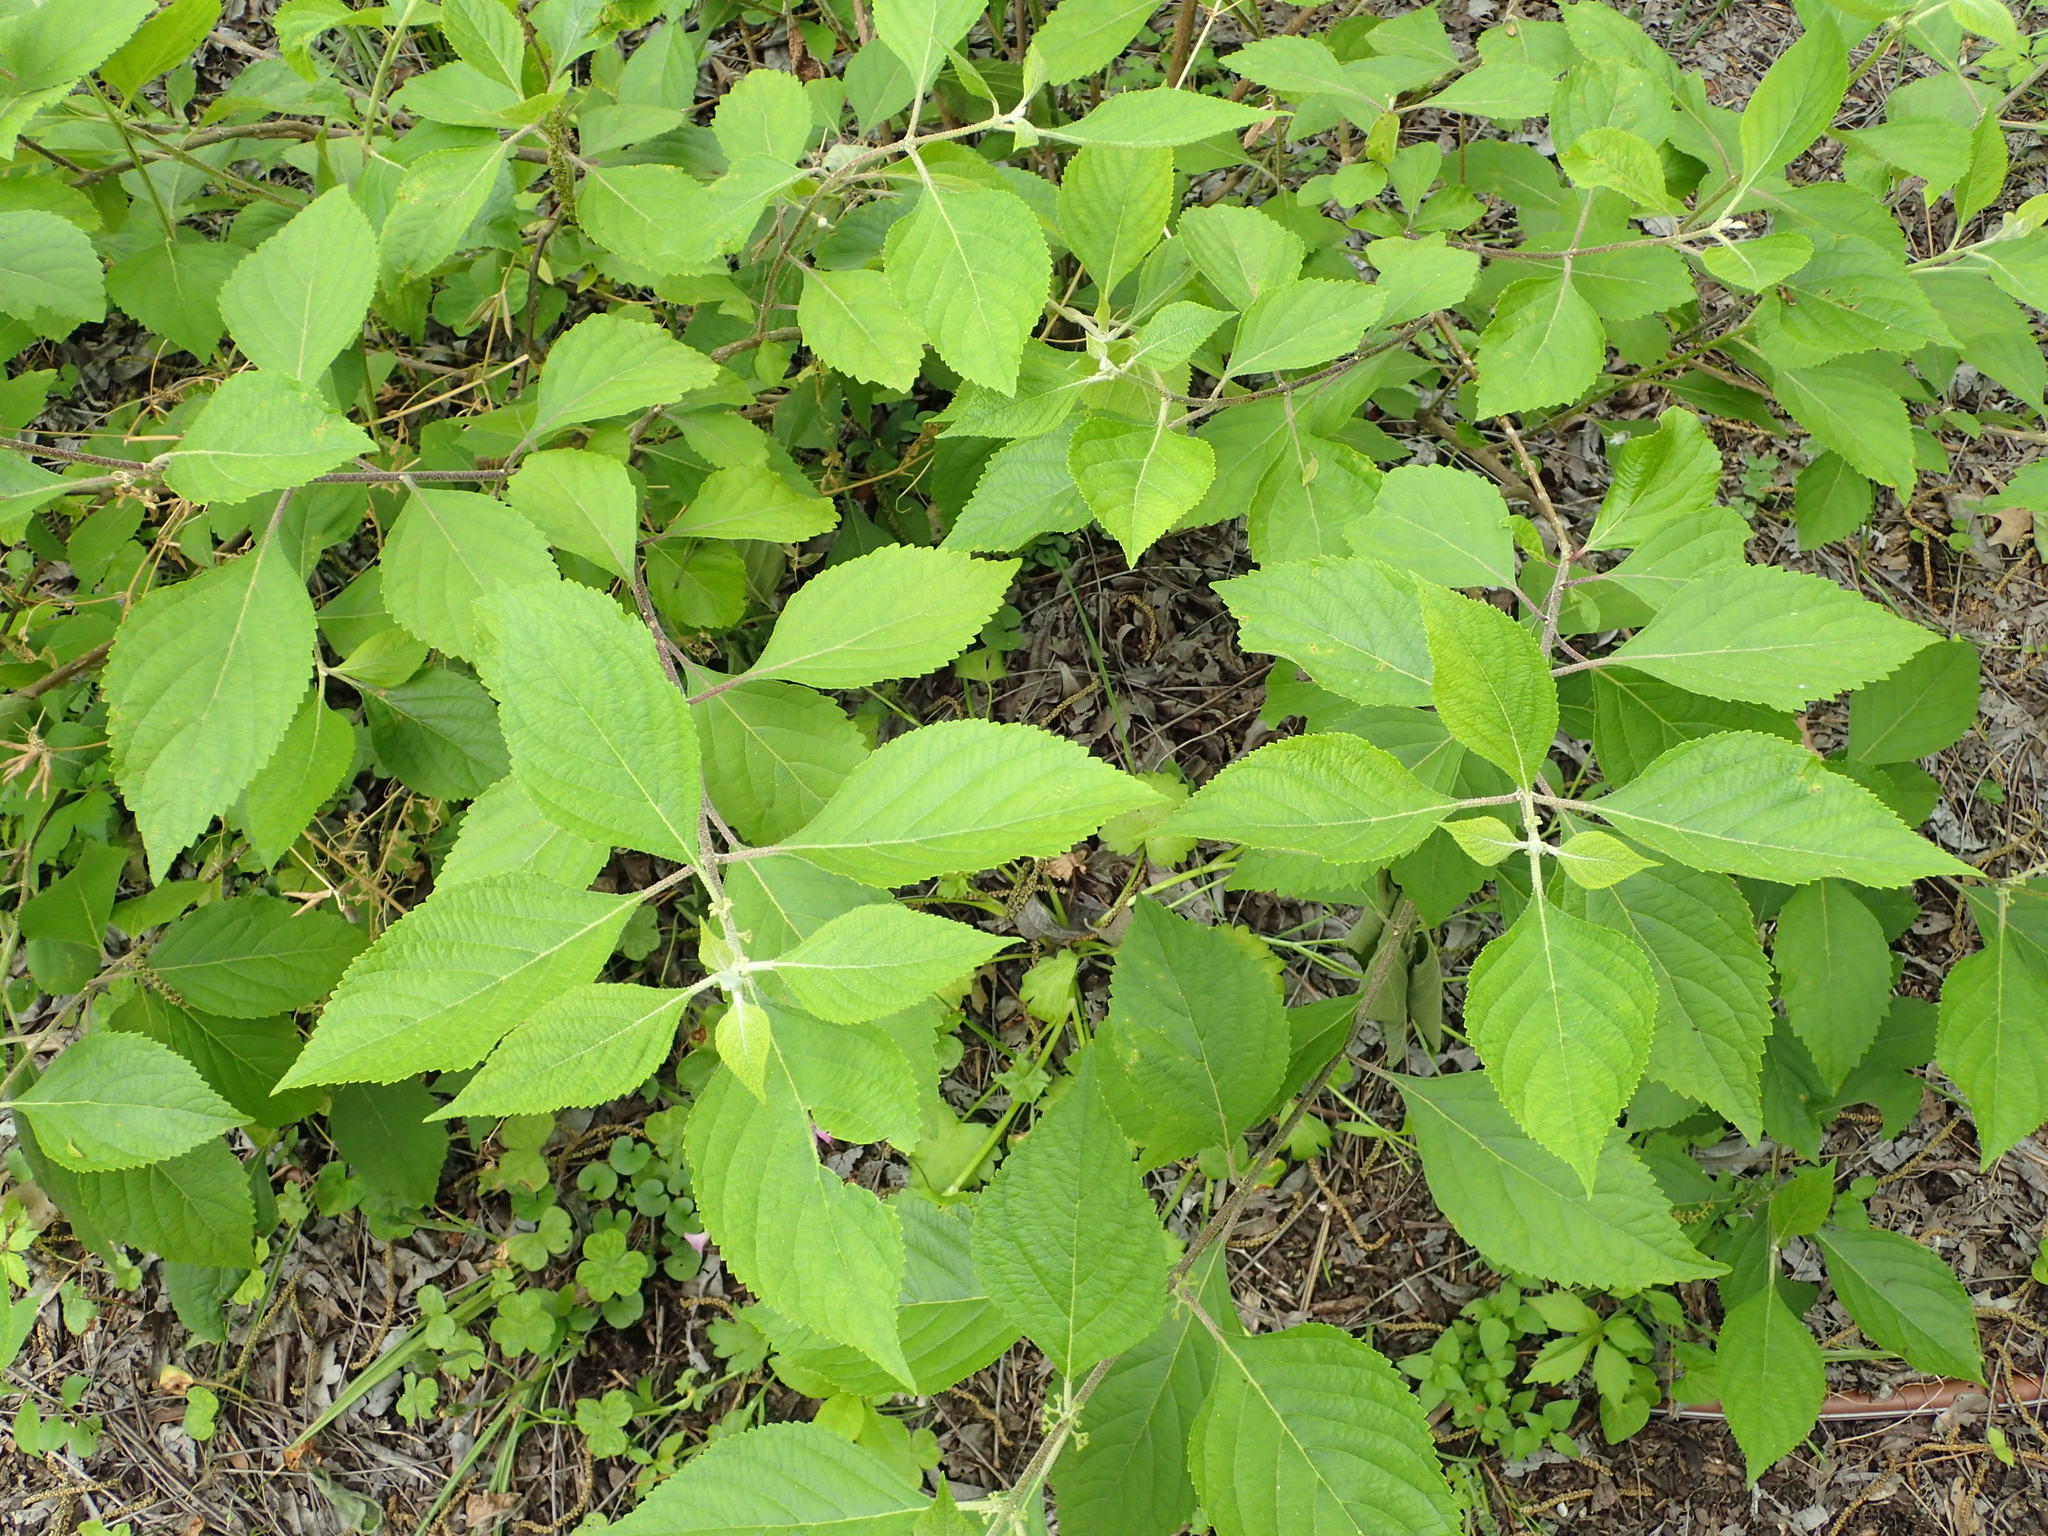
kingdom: Plantae
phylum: Tracheophyta
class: Magnoliopsida
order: Lamiales
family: Lamiaceae
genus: Callicarpa
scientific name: Callicarpa americana
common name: American beautyberry
